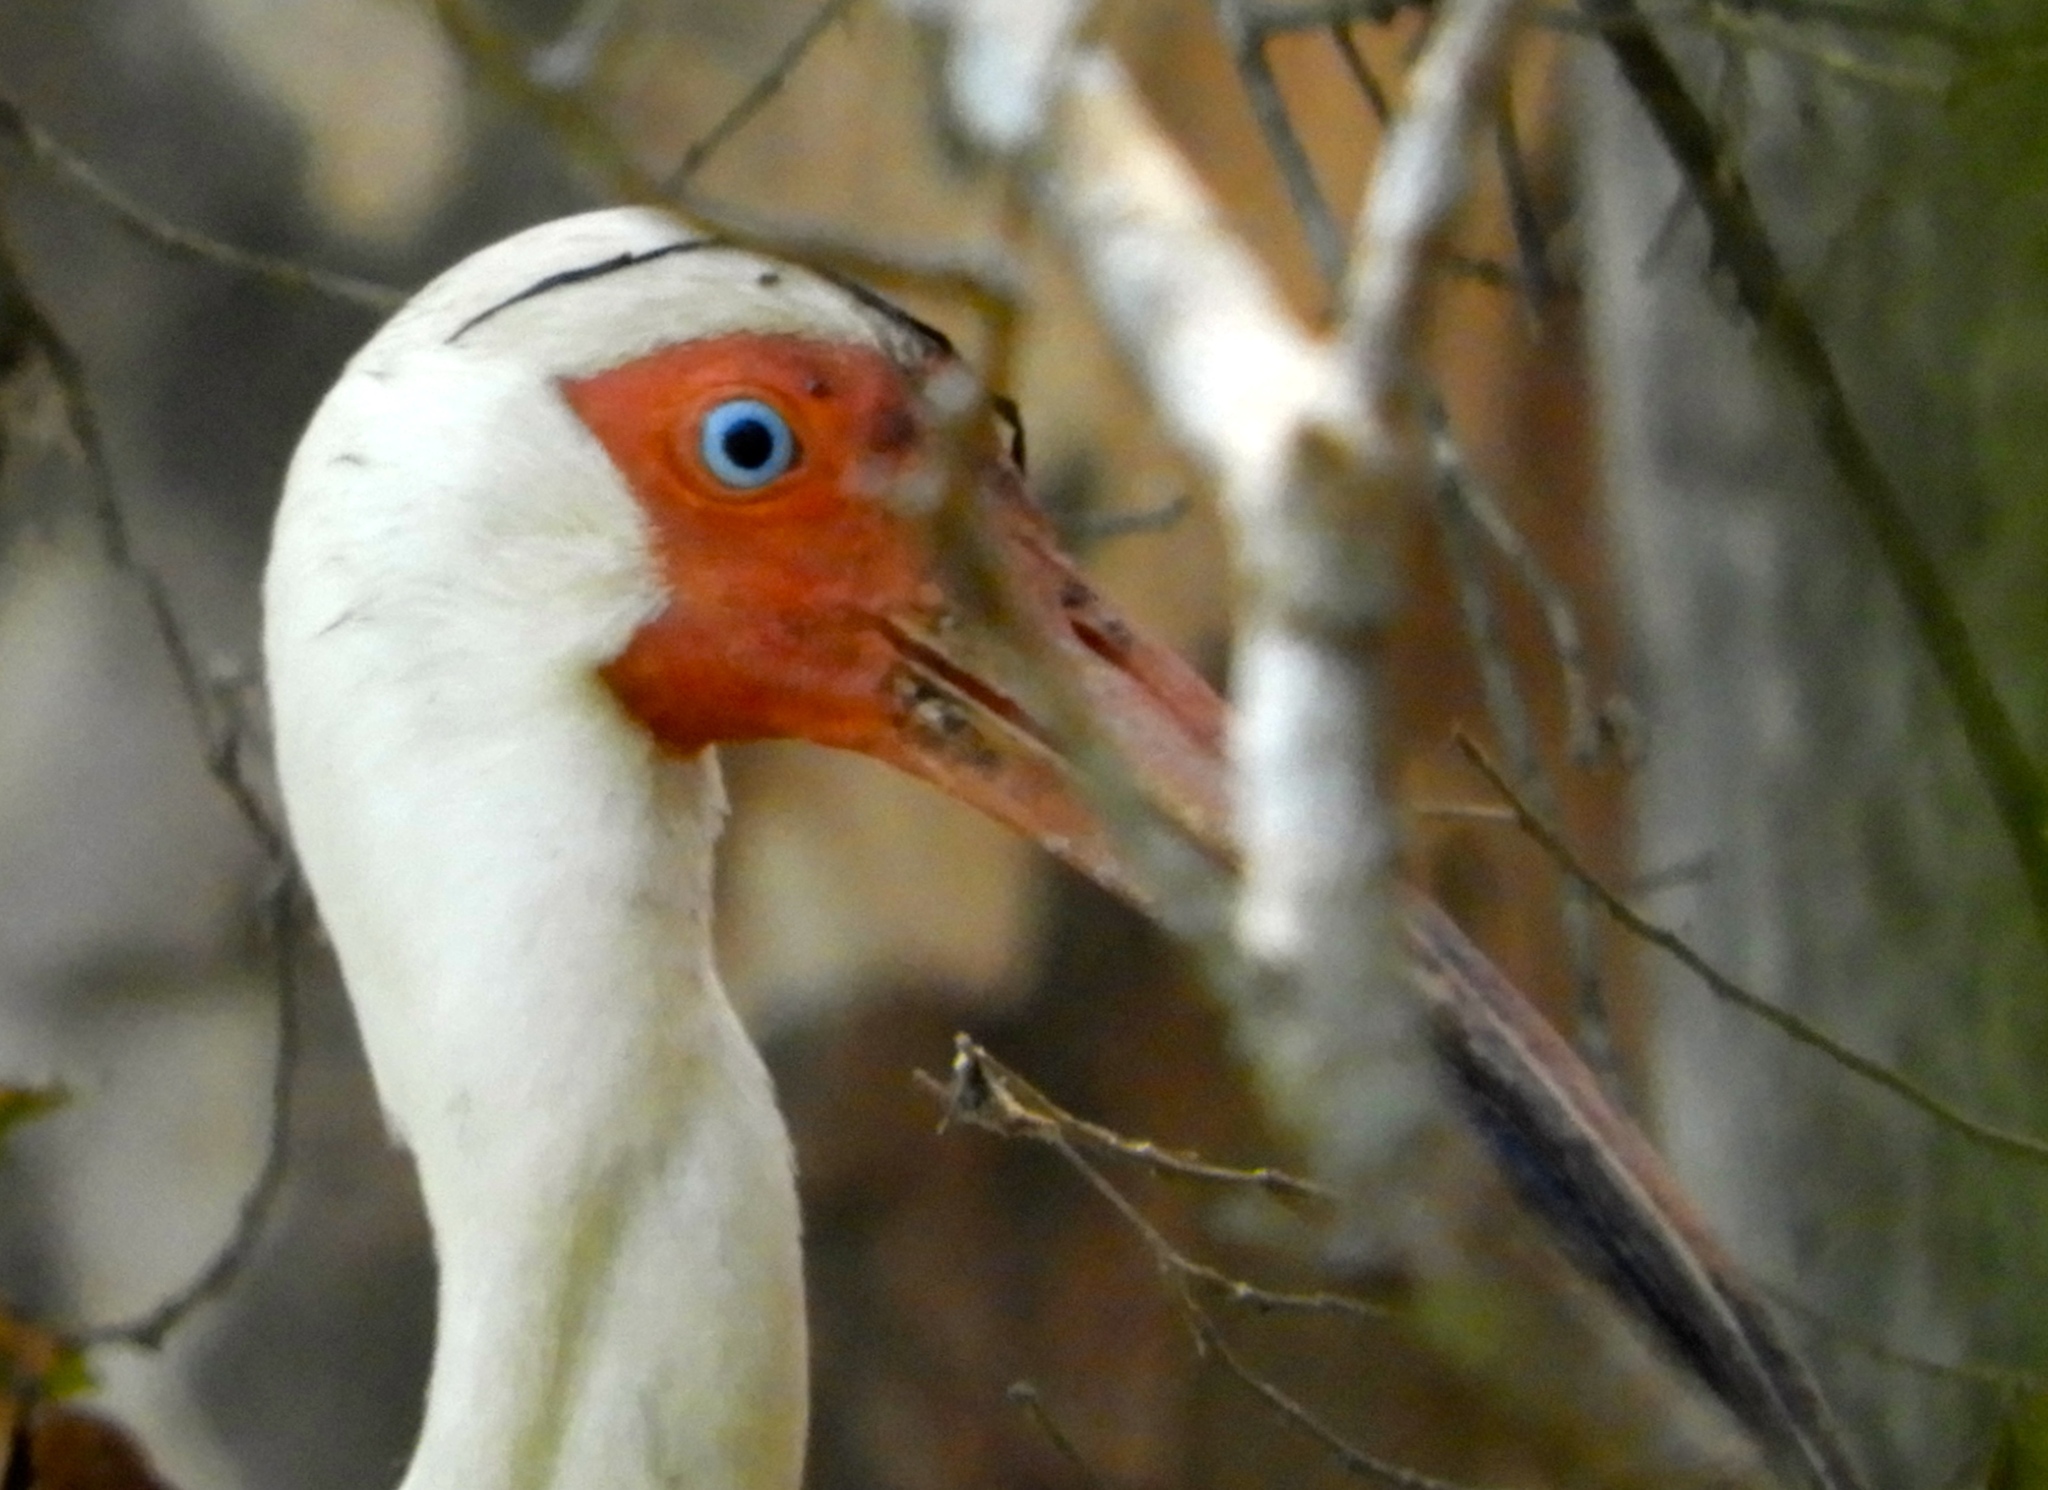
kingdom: Animalia
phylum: Chordata
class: Aves
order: Pelecaniformes
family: Threskiornithidae
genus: Eudocimus
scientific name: Eudocimus albus
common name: White ibis
